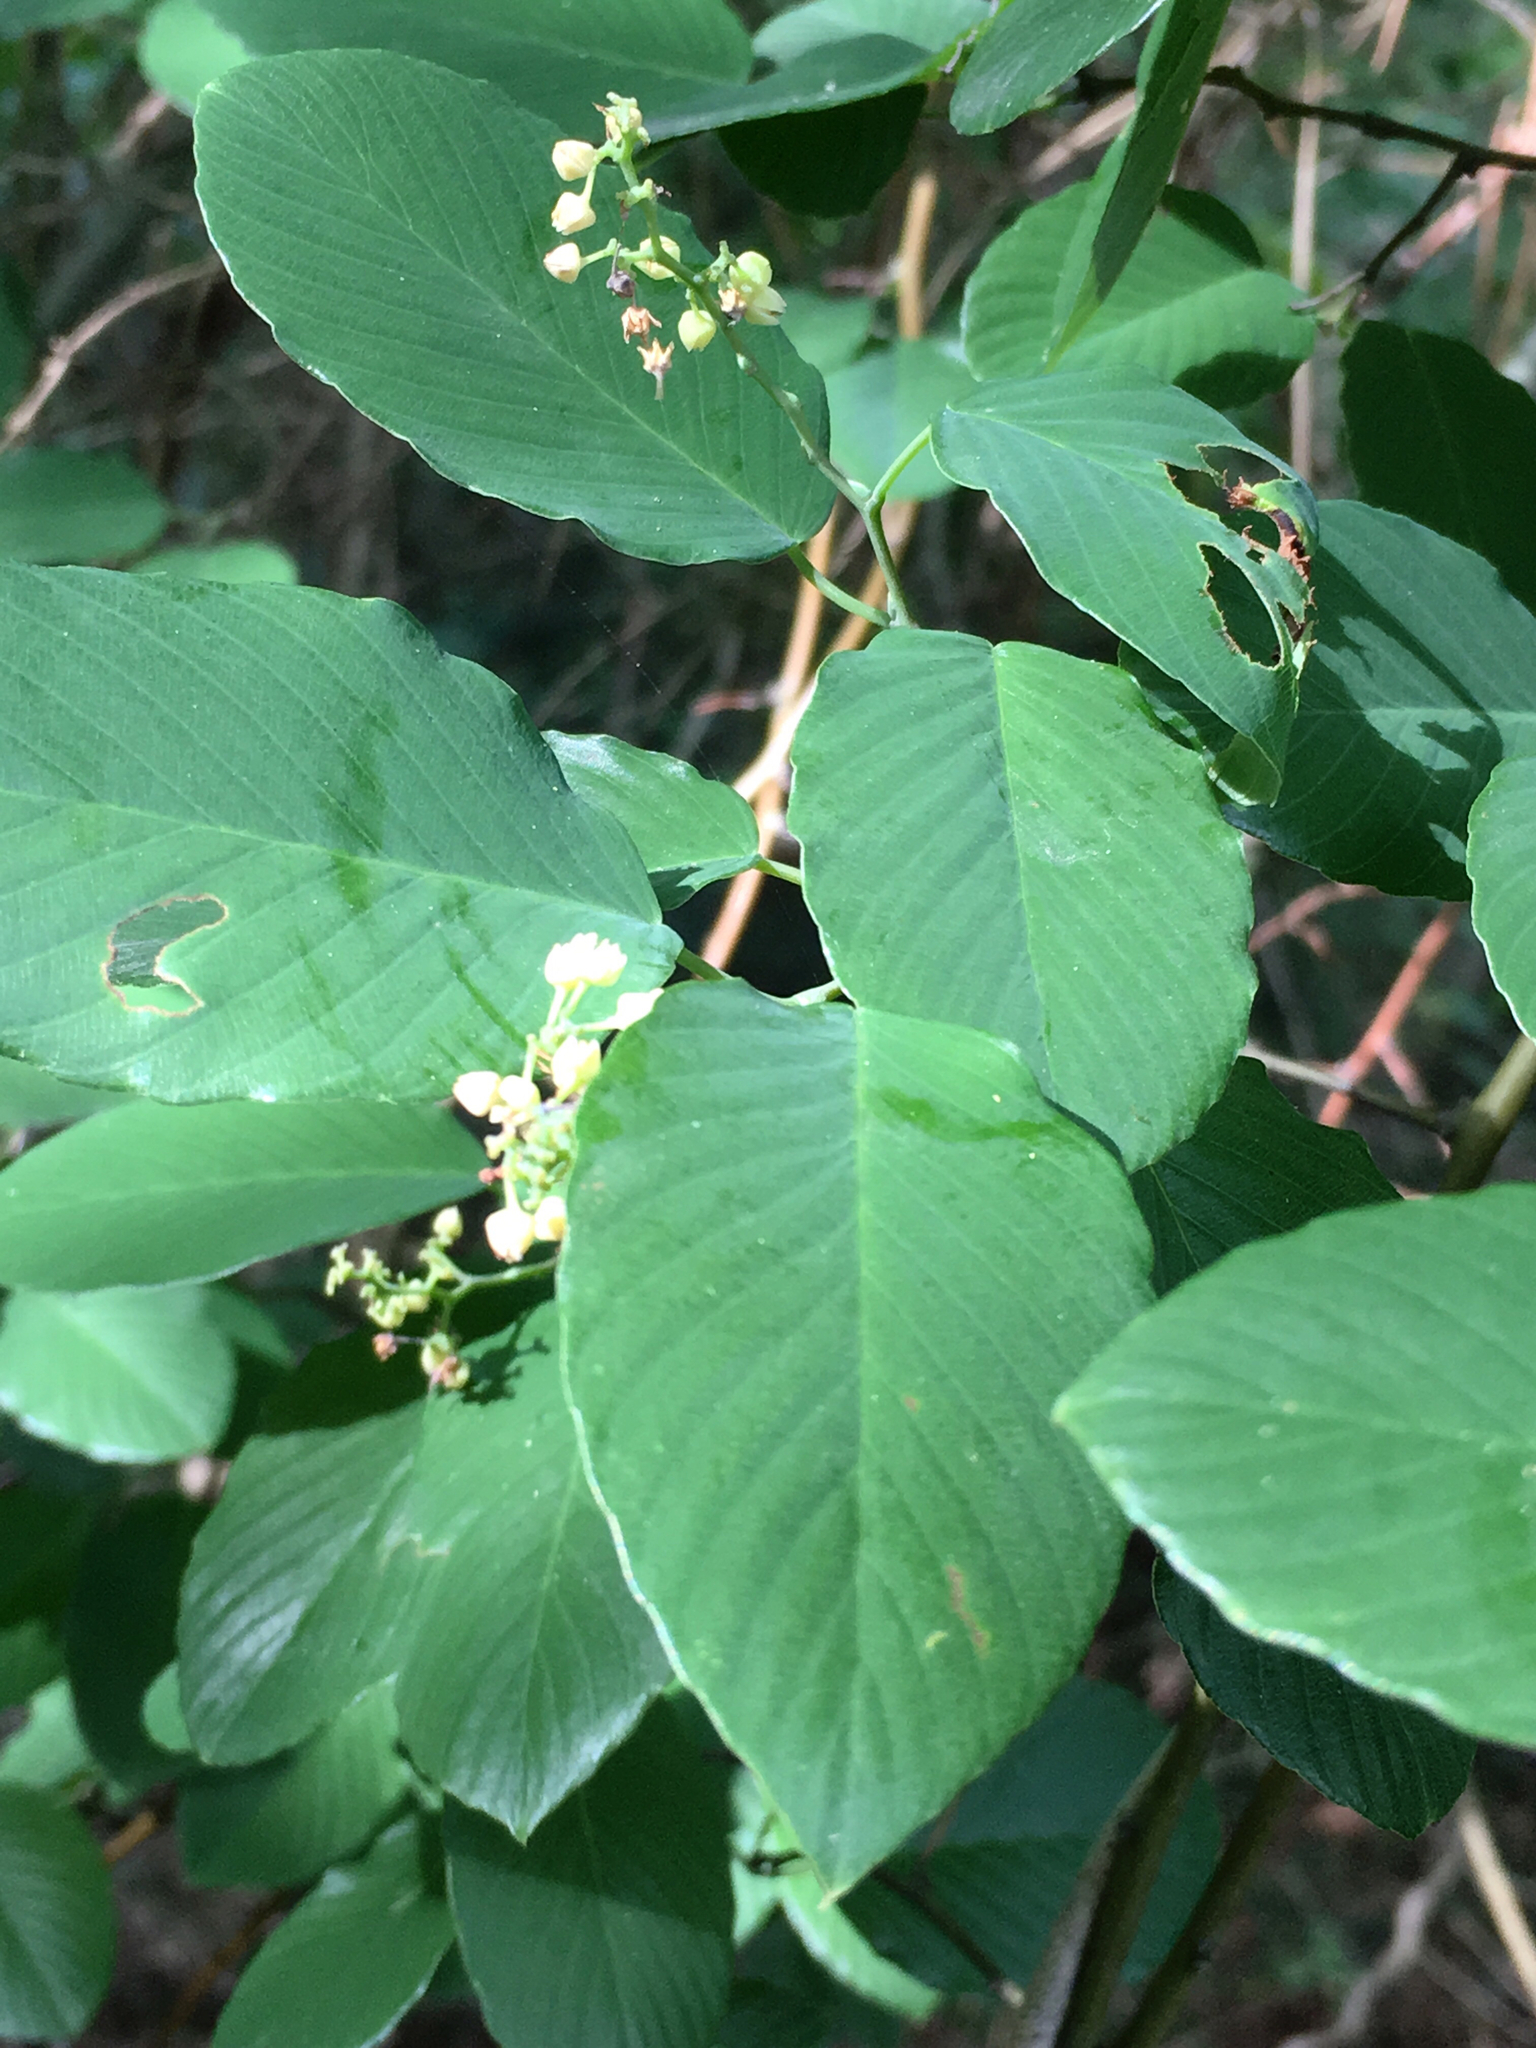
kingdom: Plantae
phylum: Tracheophyta
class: Magnoliopsida
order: Rosales
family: Rhamnaceae
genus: Berchemia
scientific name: Berchemia scandens
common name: Supplejack
